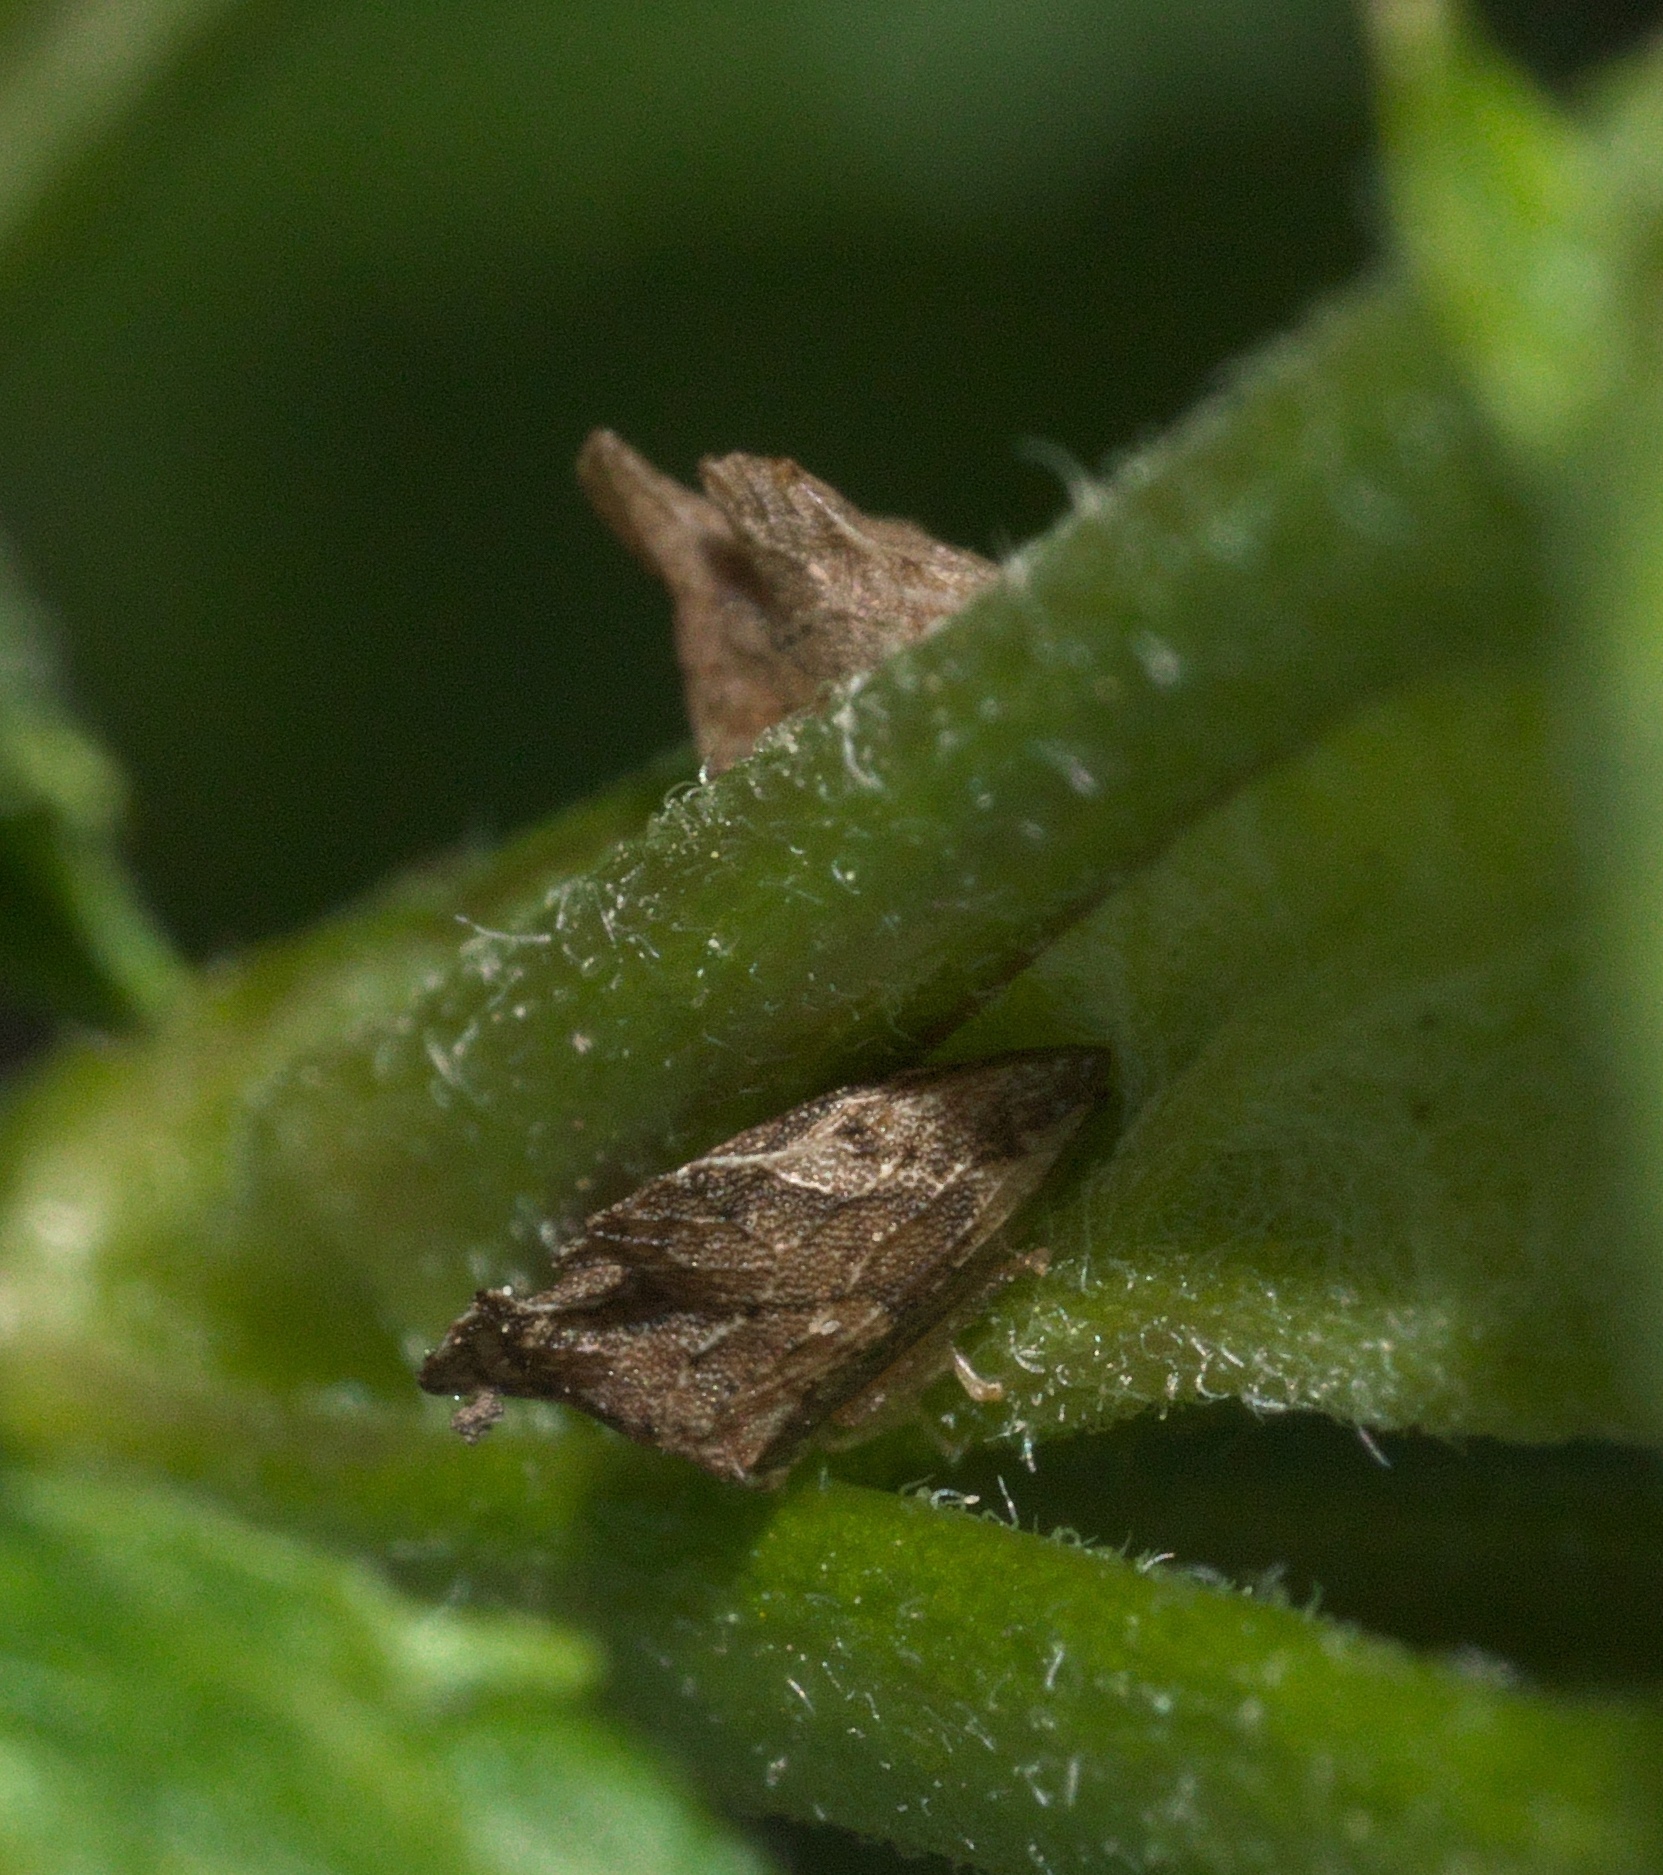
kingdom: Animalia
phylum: Arthropoda
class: Insecta
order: Hemiptera
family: Membracidae
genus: Entylia
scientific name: Entylia carinata
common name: Keeled treehopper
